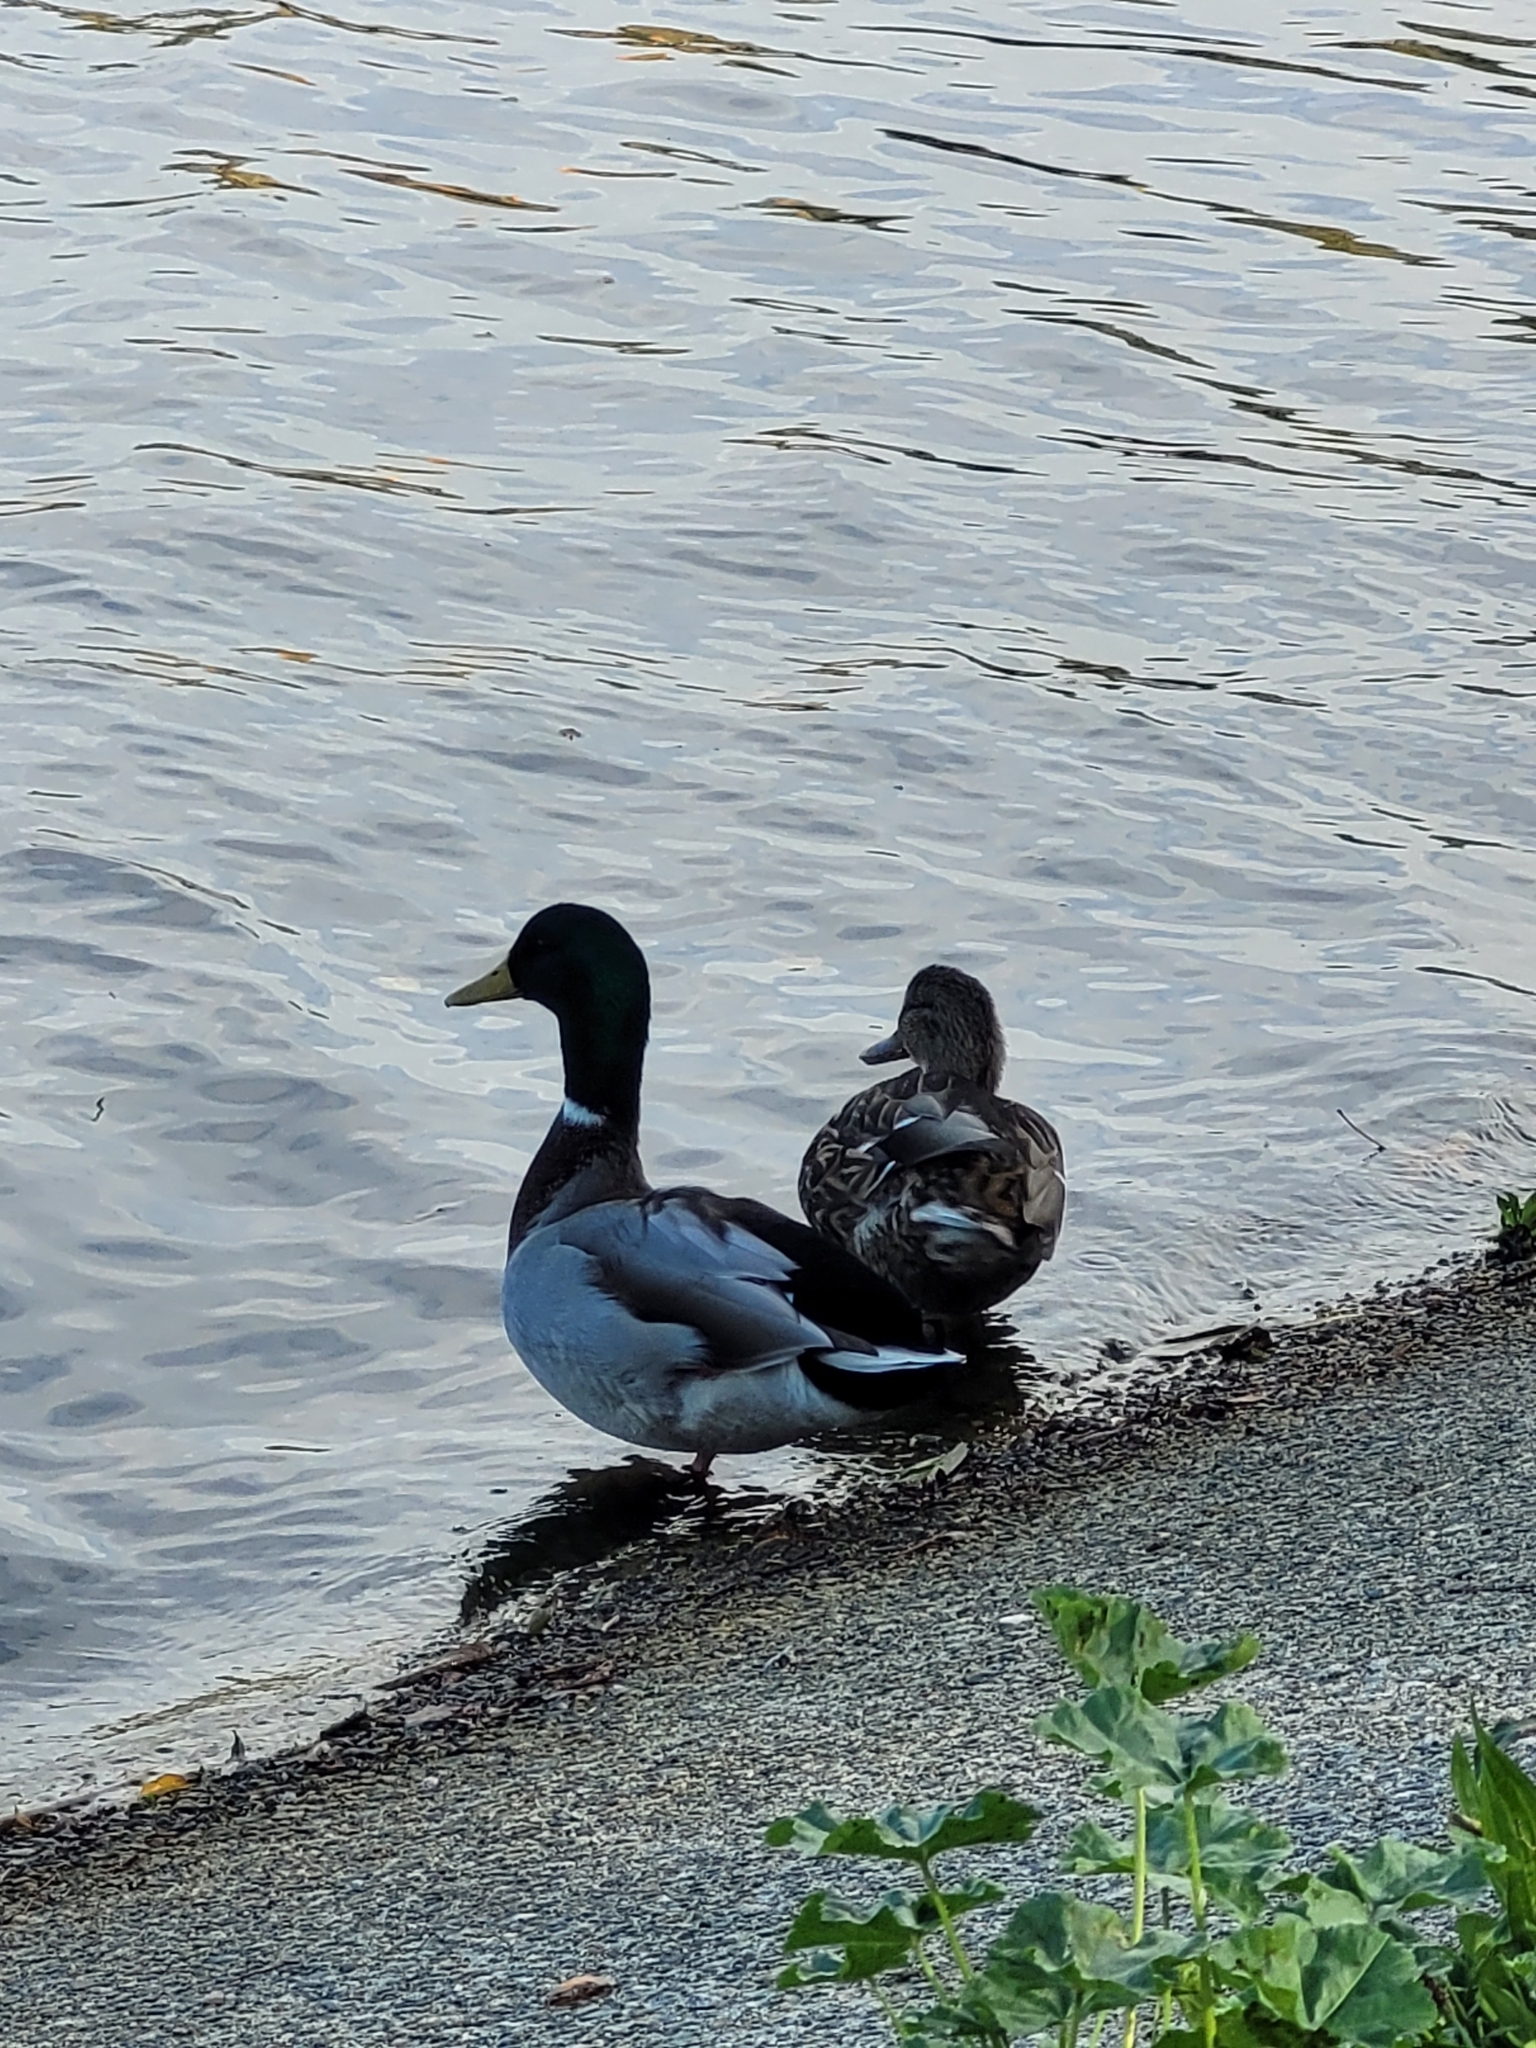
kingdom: Animalia
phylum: Chordata
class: Aves
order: Anseriformes
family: Anatidae
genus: Anas
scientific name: Anas platyrhynchos
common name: Mallard
